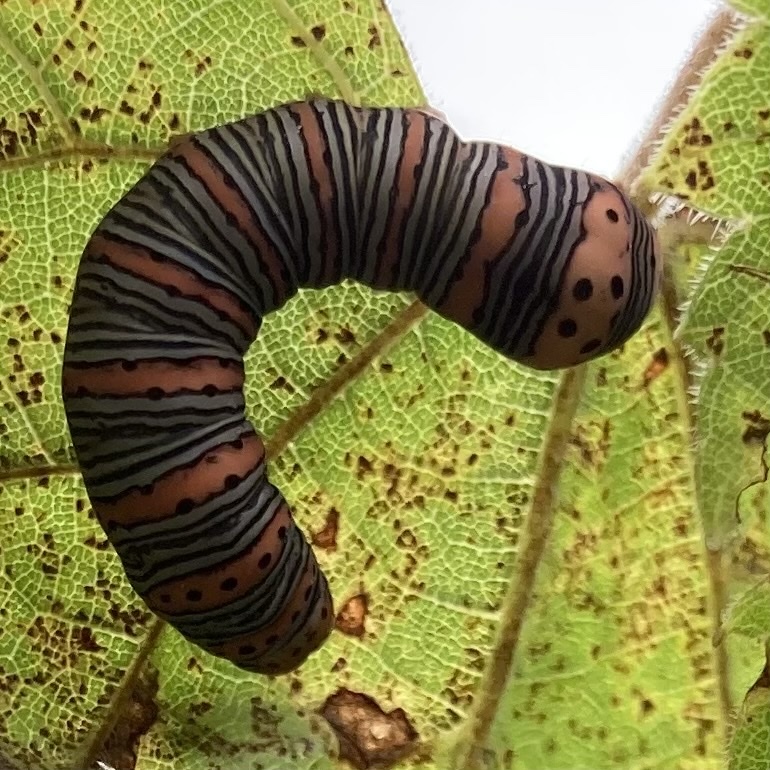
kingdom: Animalia
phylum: Arthropoda
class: Insecta
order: Lepidoptera
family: Noctuidae
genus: Eudryas
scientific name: Eudryas grata
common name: Beautiful wood-nymph
